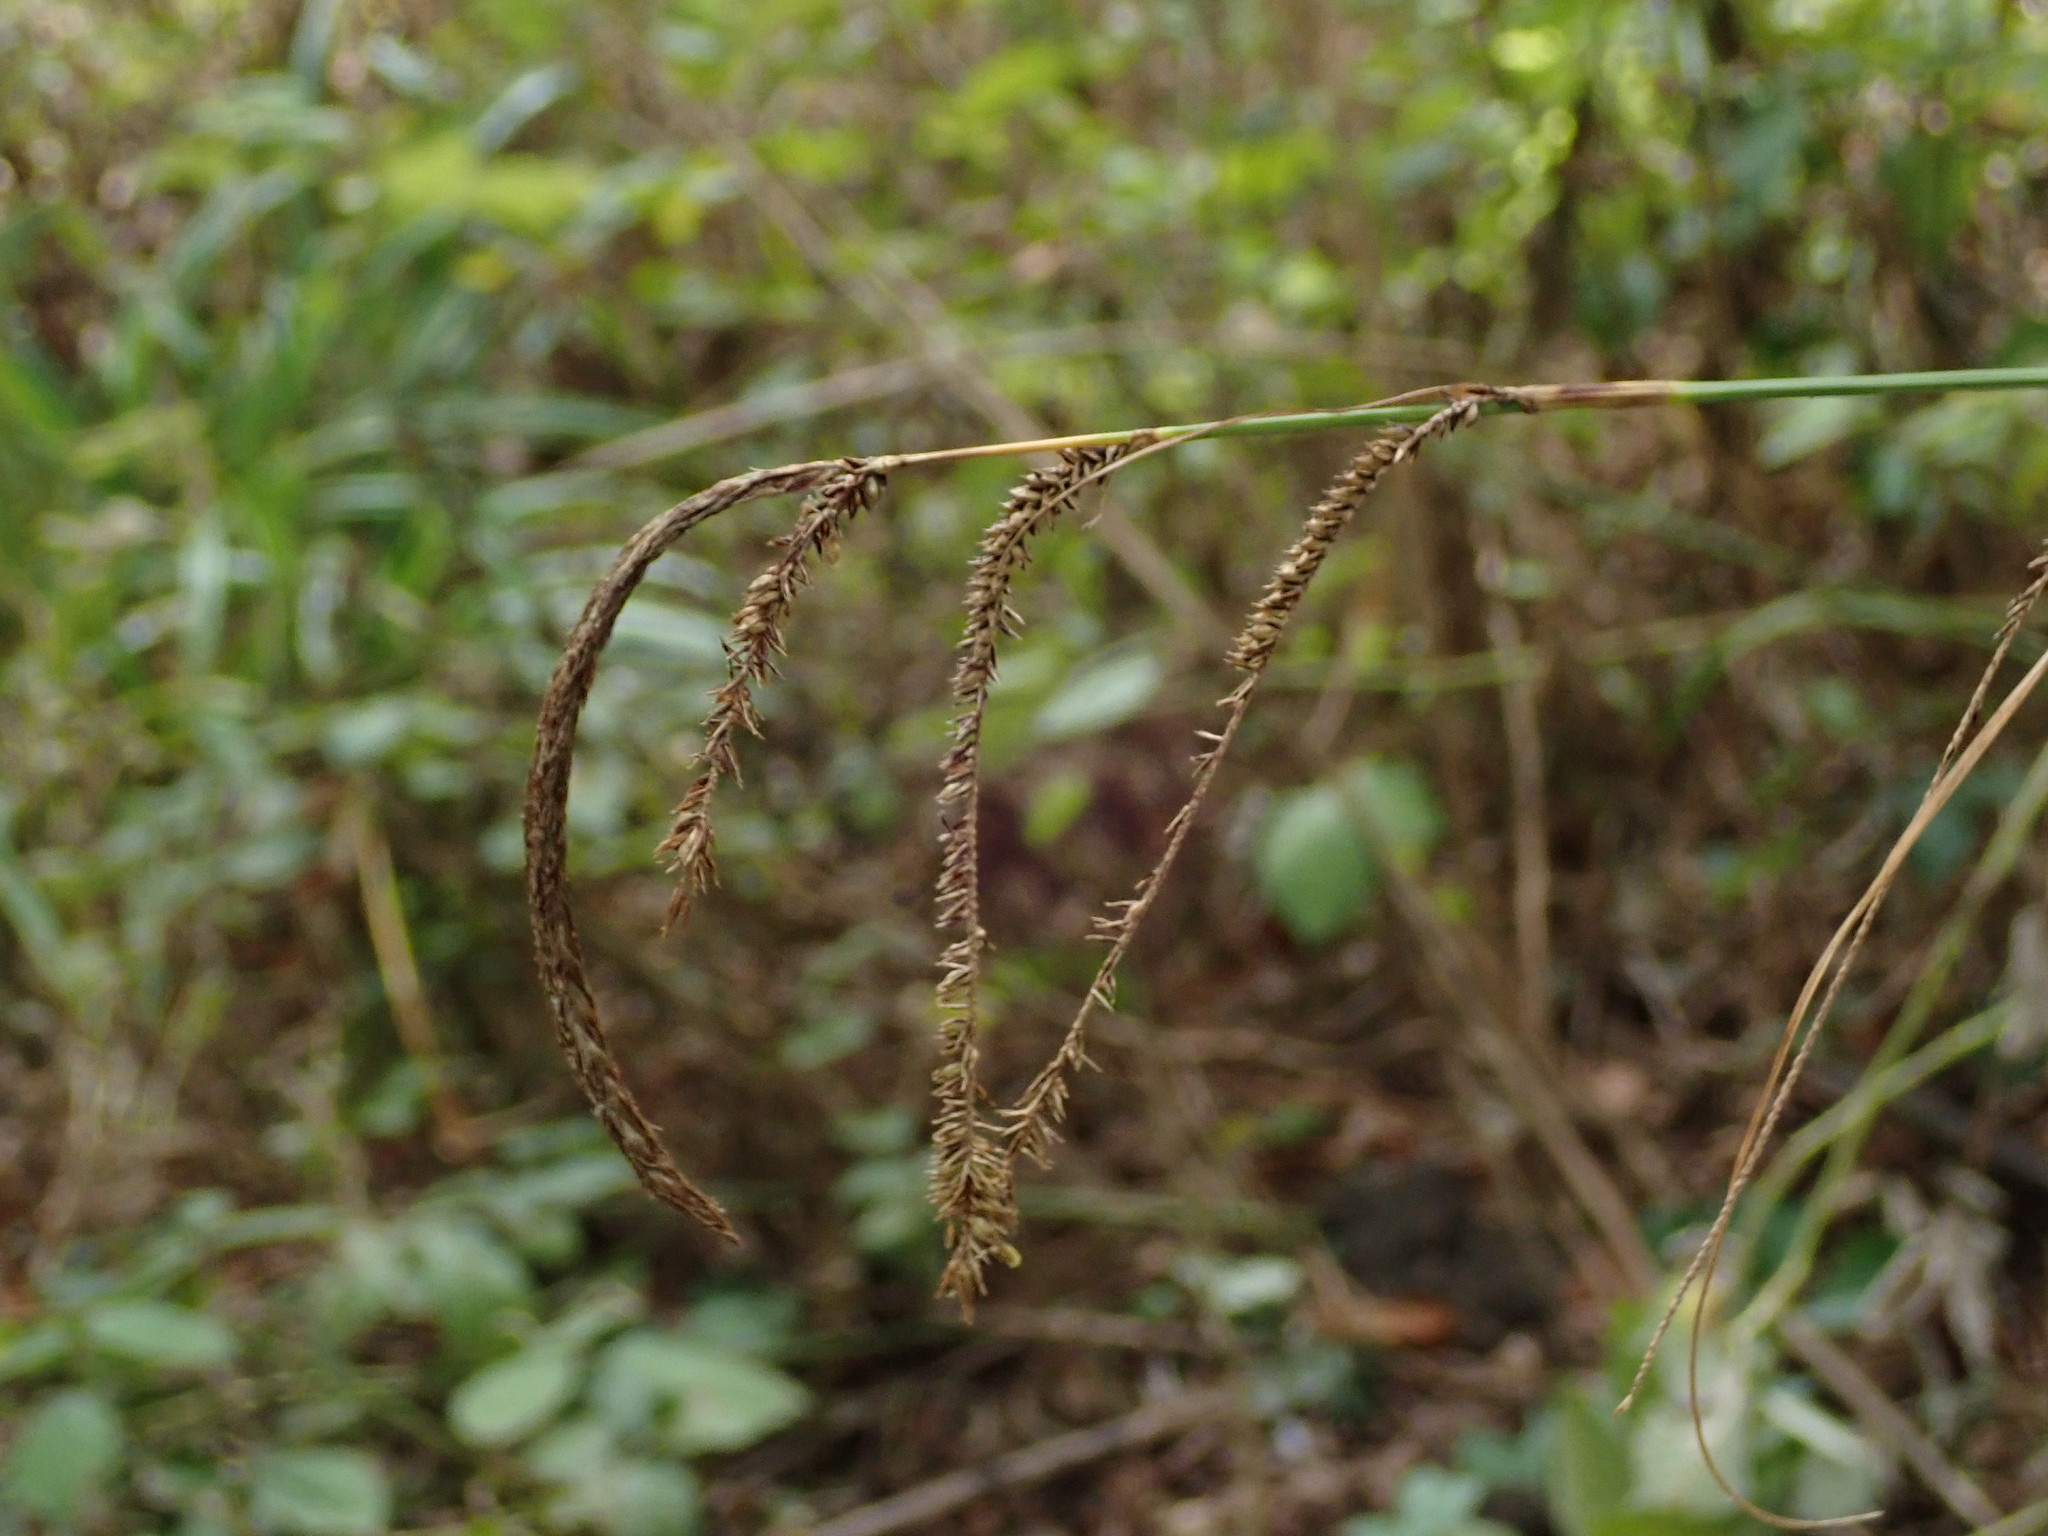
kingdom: Plantae
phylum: Tracheophyta
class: Liliopsida
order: Poales
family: Cyperaceae
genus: Carex
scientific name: Carex pendula
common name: Pendulous sedge
